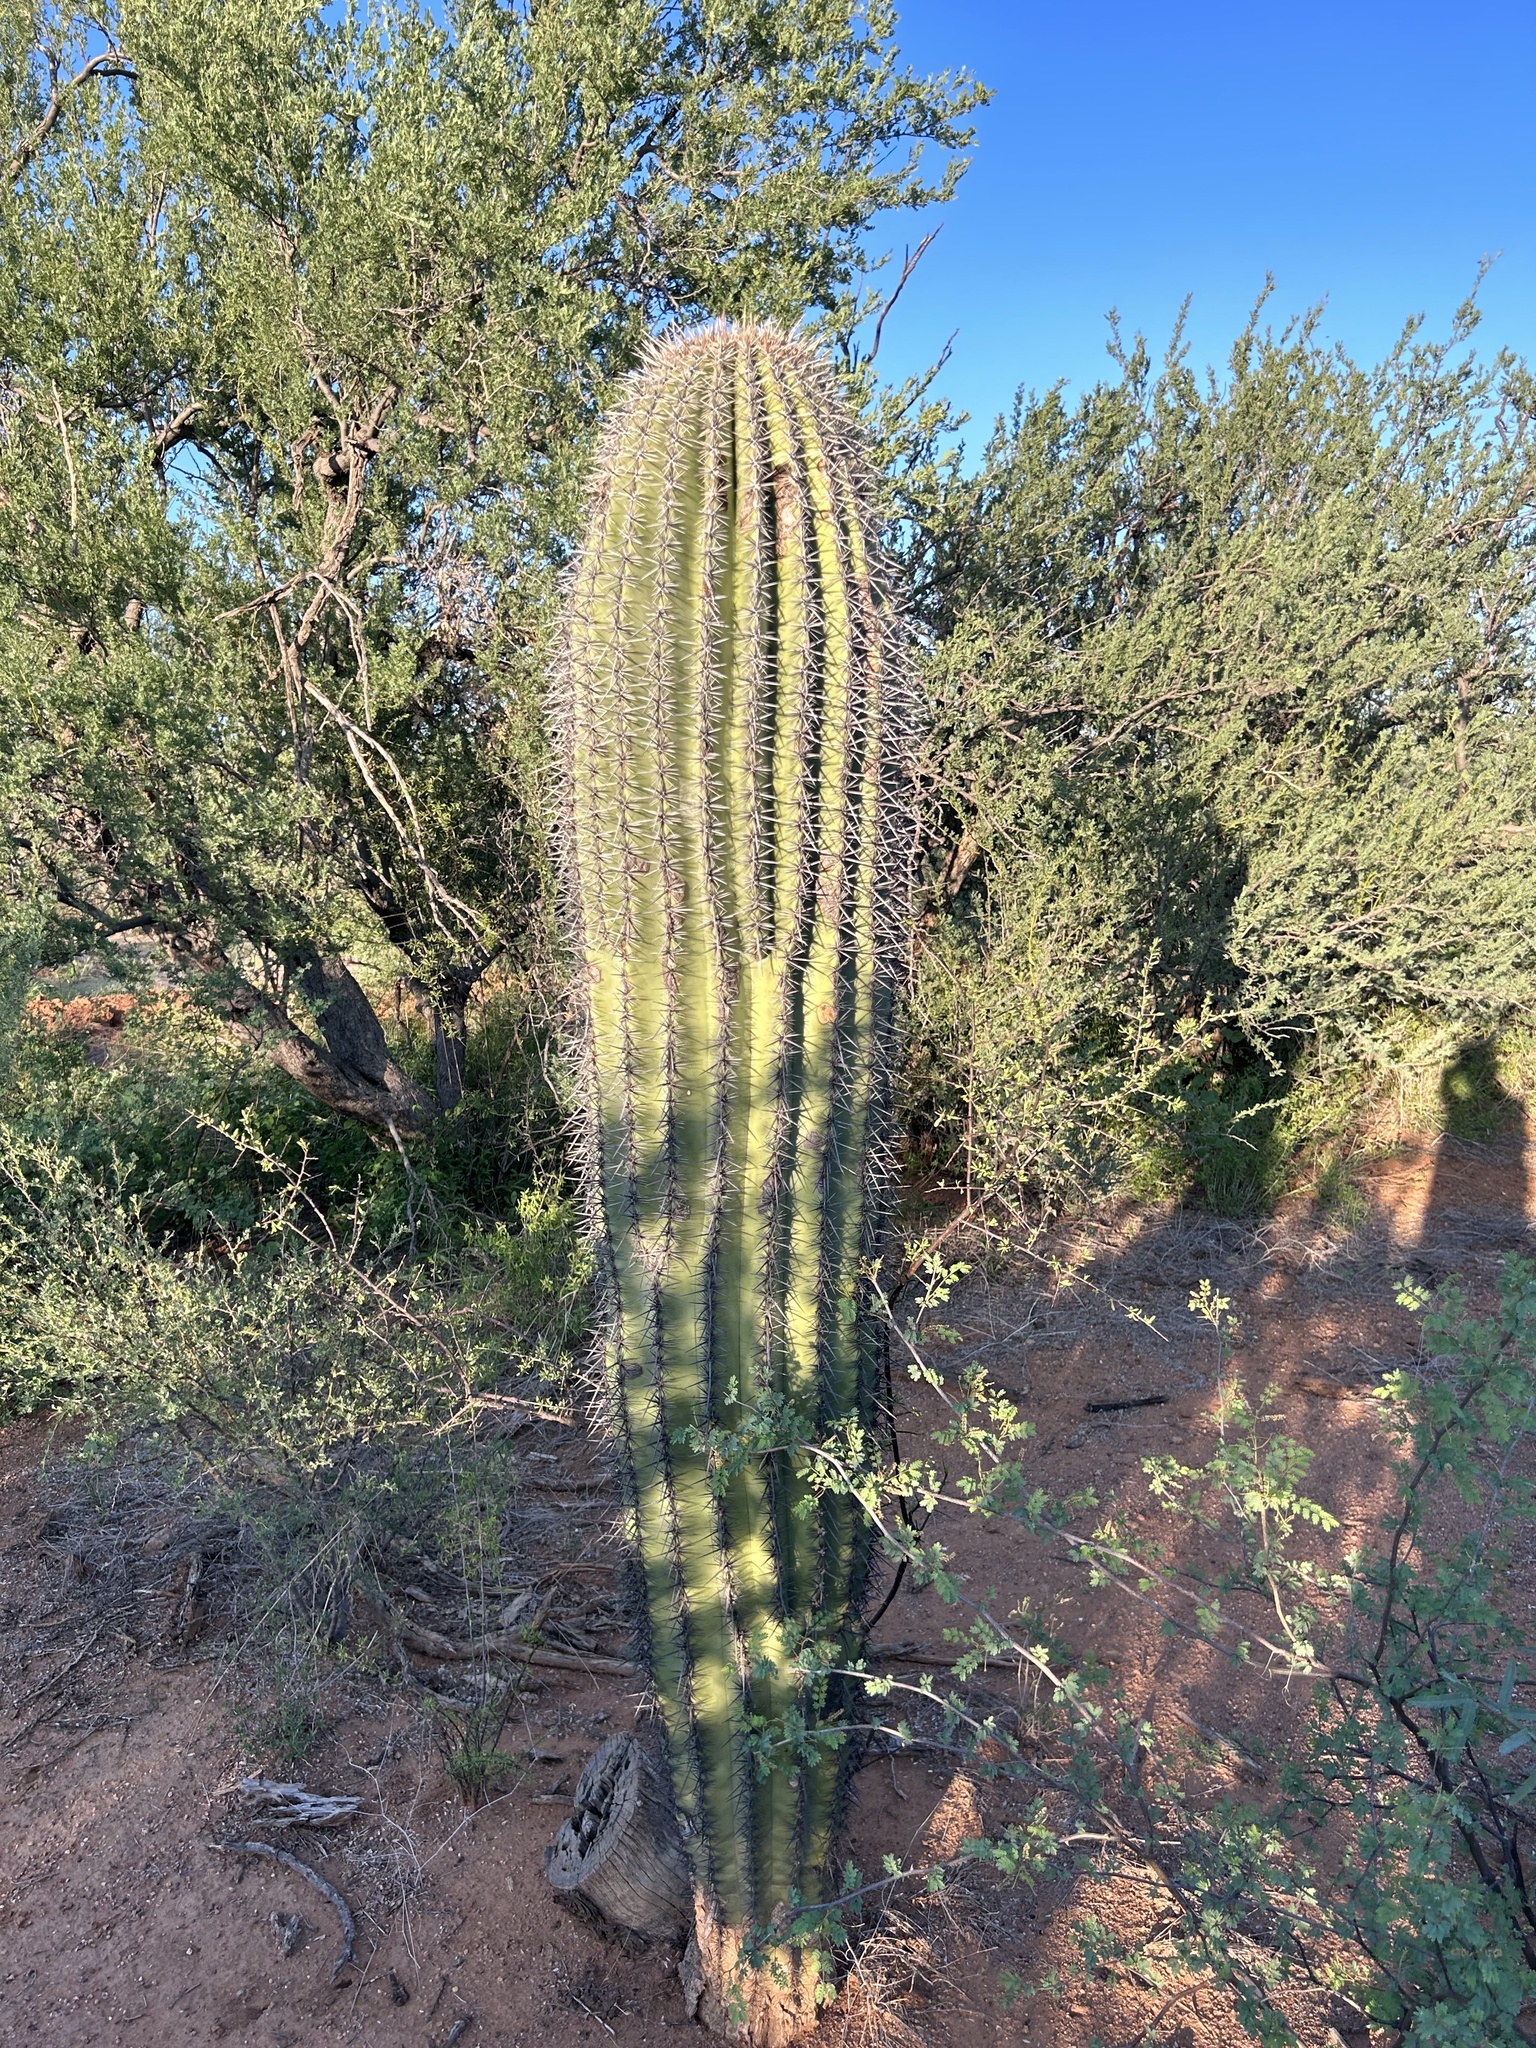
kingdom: Plantae
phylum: Tracheophyta
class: Magnoliopsida
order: Caryophyllales
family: Cactaceae
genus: Carnegiea
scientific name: Carnegiea gigantea
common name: Saguaro
